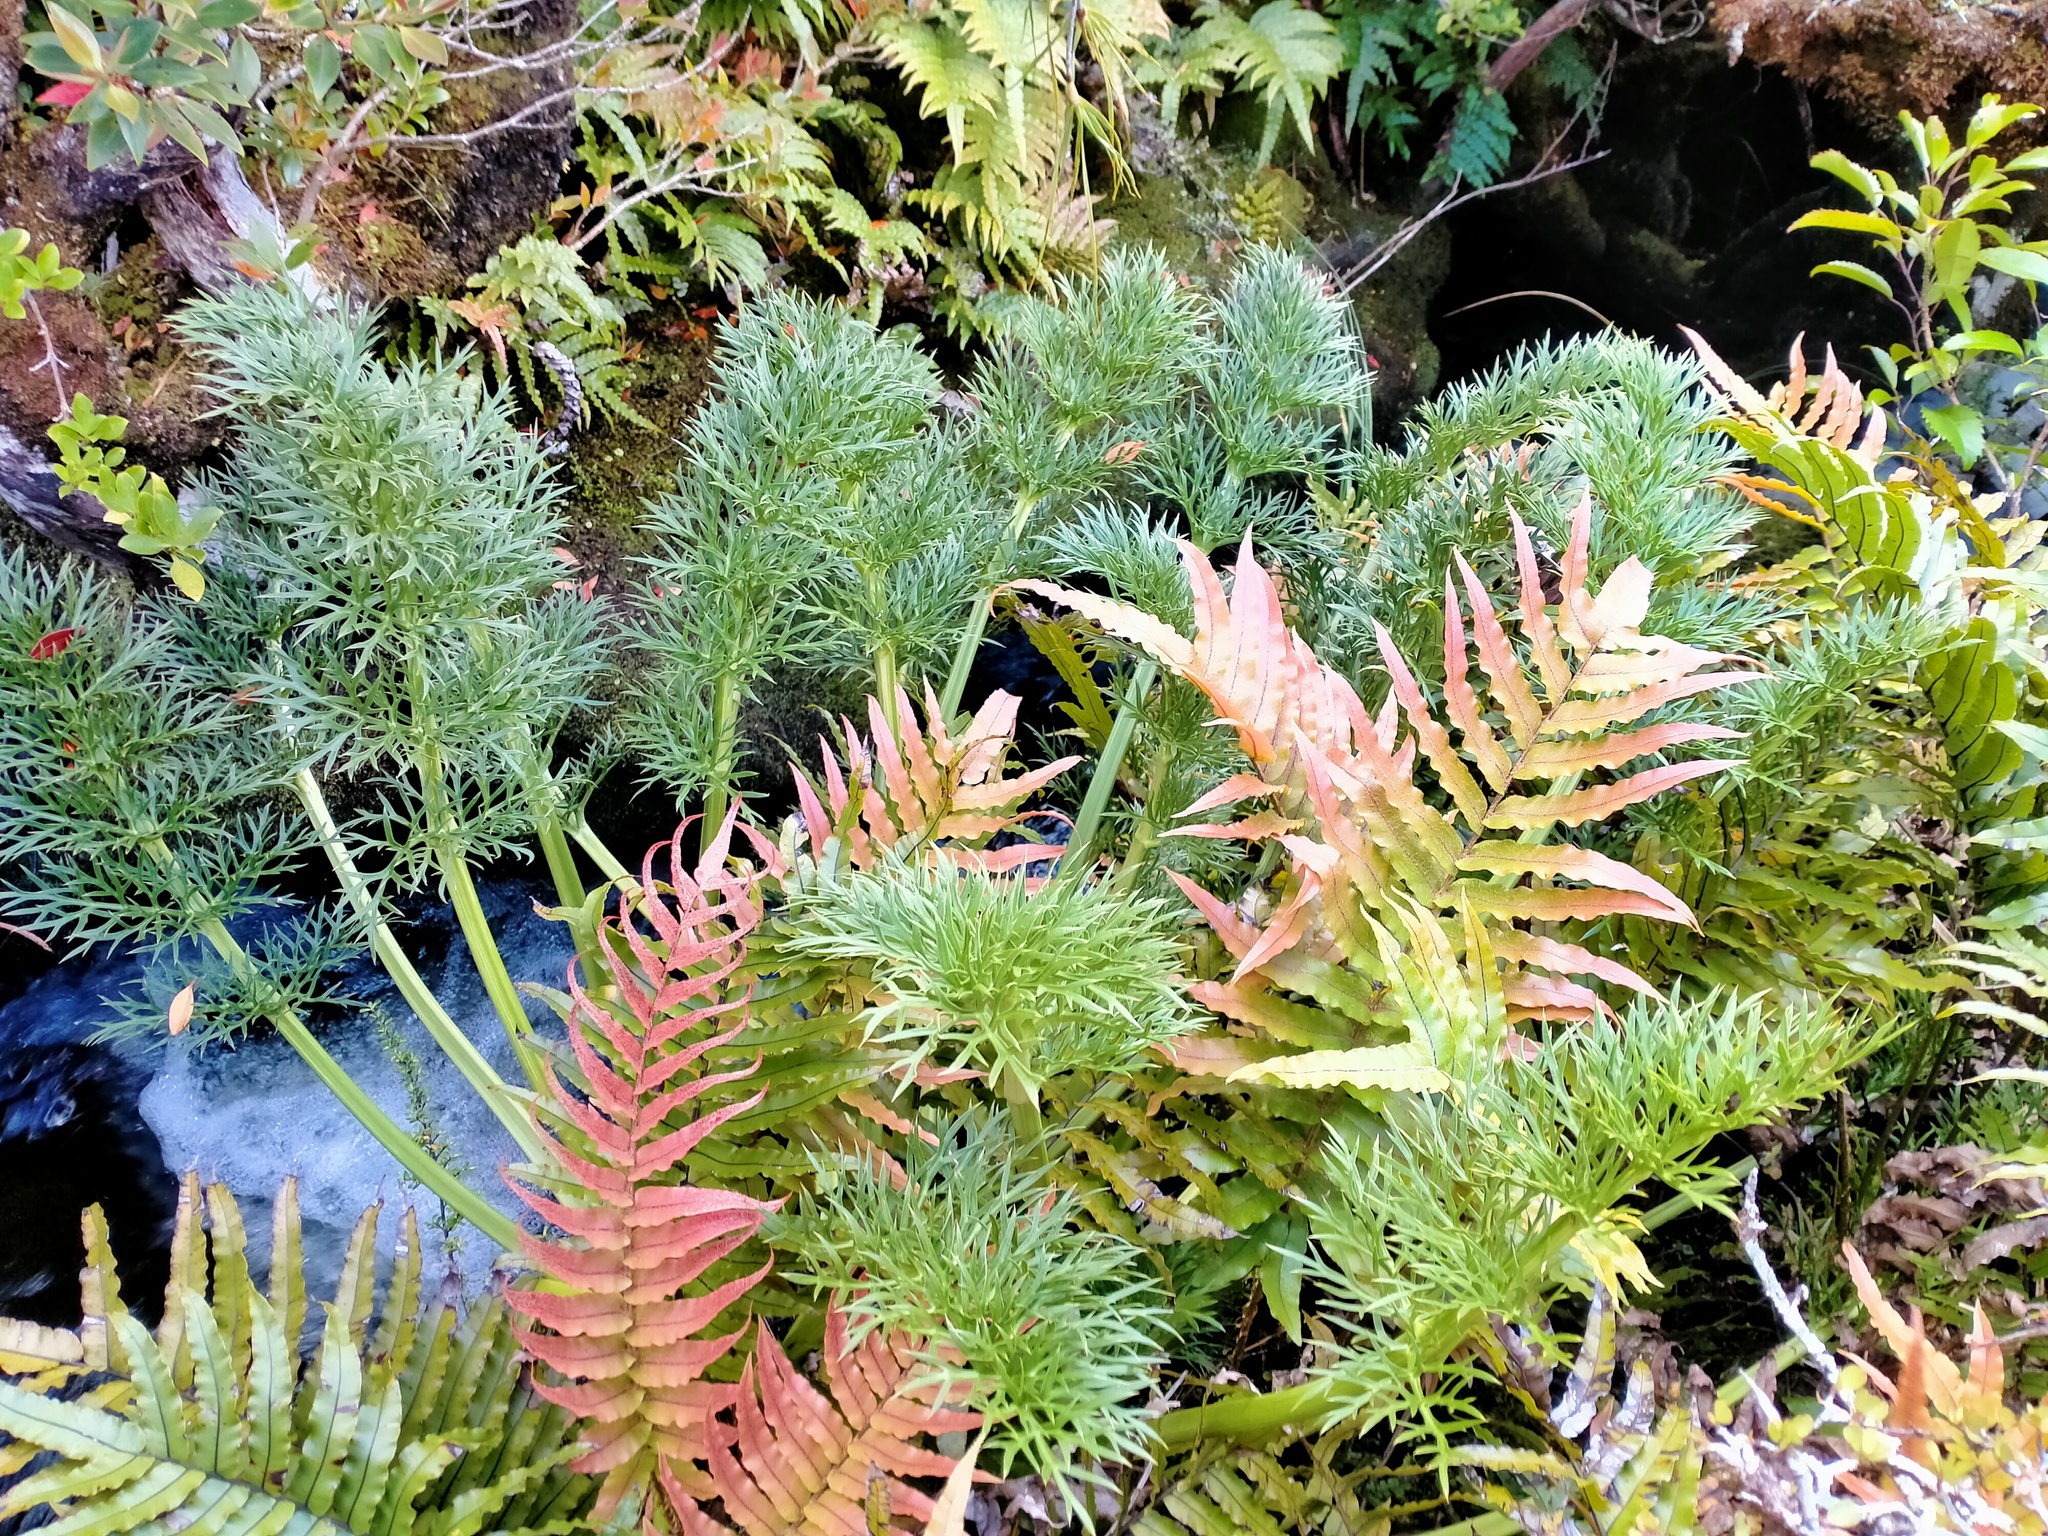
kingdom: Plantae
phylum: Tracheophyta
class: Magnoliopsida
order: Apiales
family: Apiaceae
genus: Anisotome
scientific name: Anisotome antipoda
